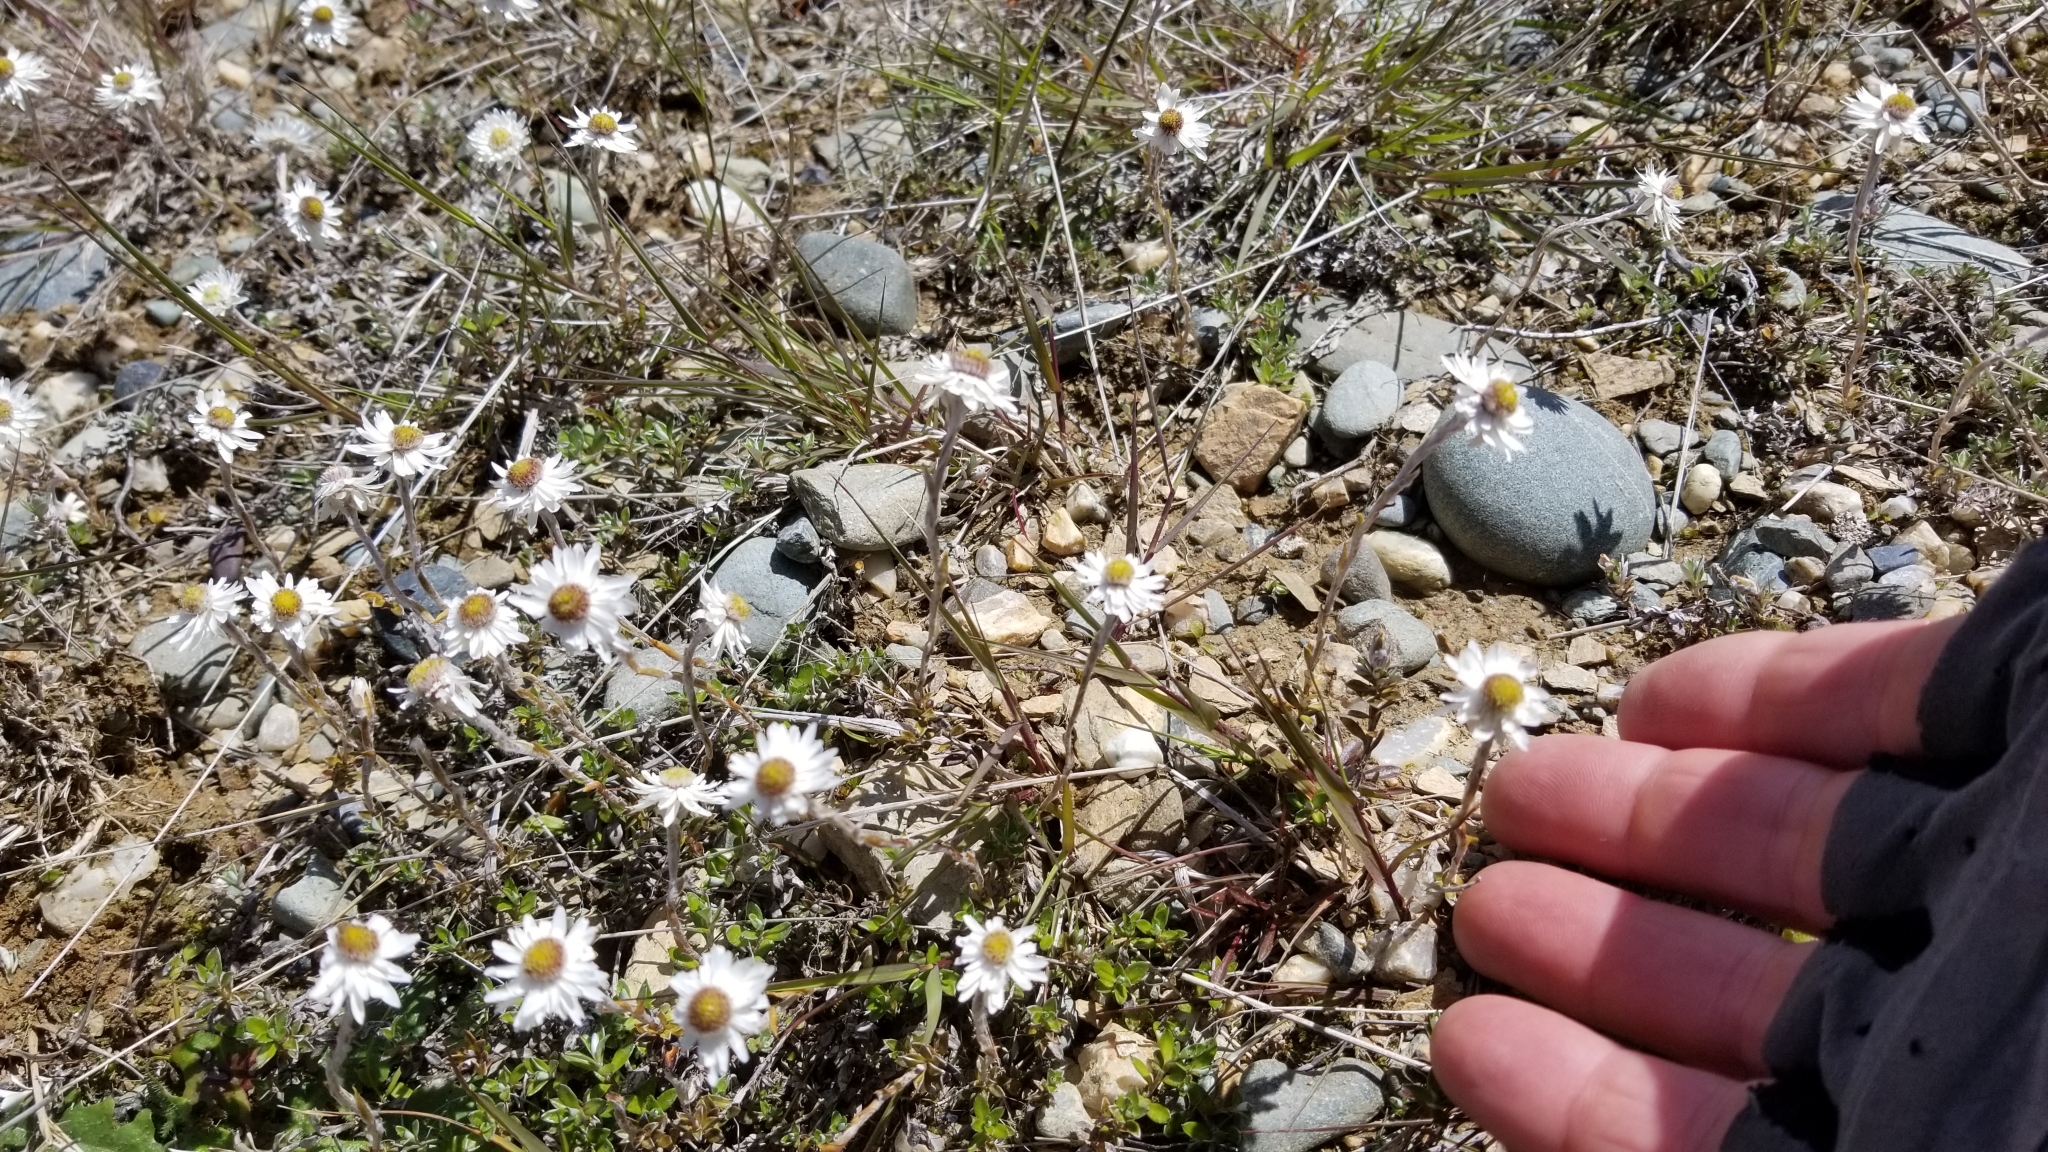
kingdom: Plantae
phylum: Tracheophyta
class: Magnoliopsida
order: Asterales
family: Asteraceae
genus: Anaphalioides
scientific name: Anaphalioides bellidioides
